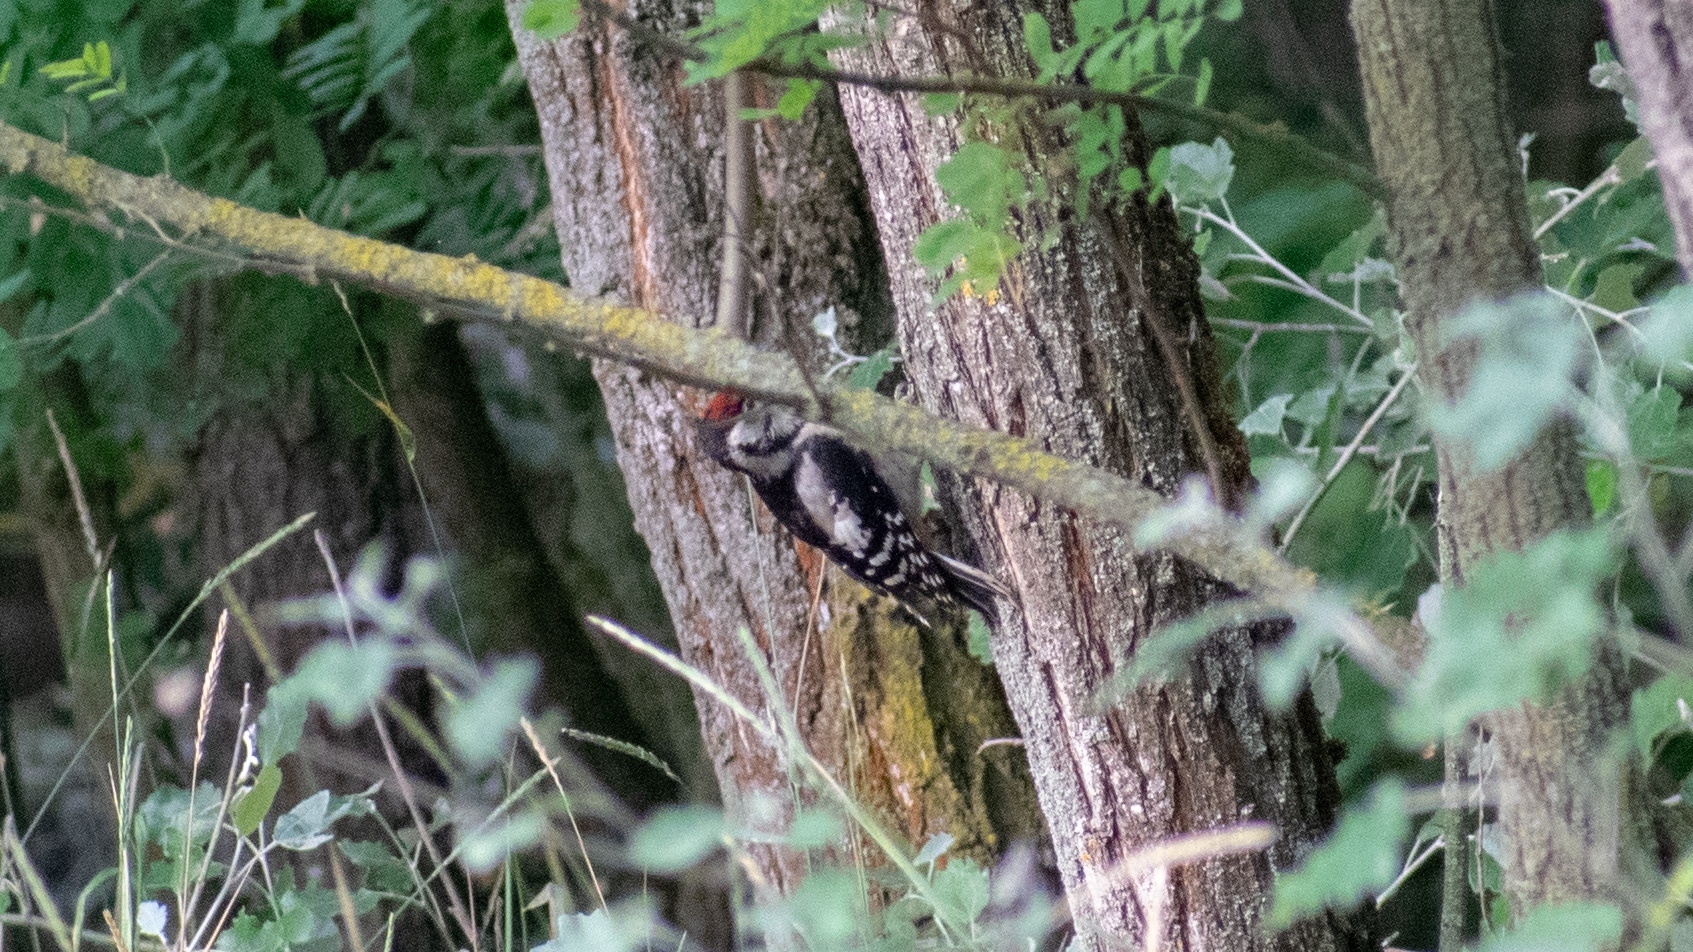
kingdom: Animalia
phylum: Chordata
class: Aves
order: Piciformes
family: Picidae
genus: Dendrocopos
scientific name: Dendrocopos major
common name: Great spotted woodpecker
